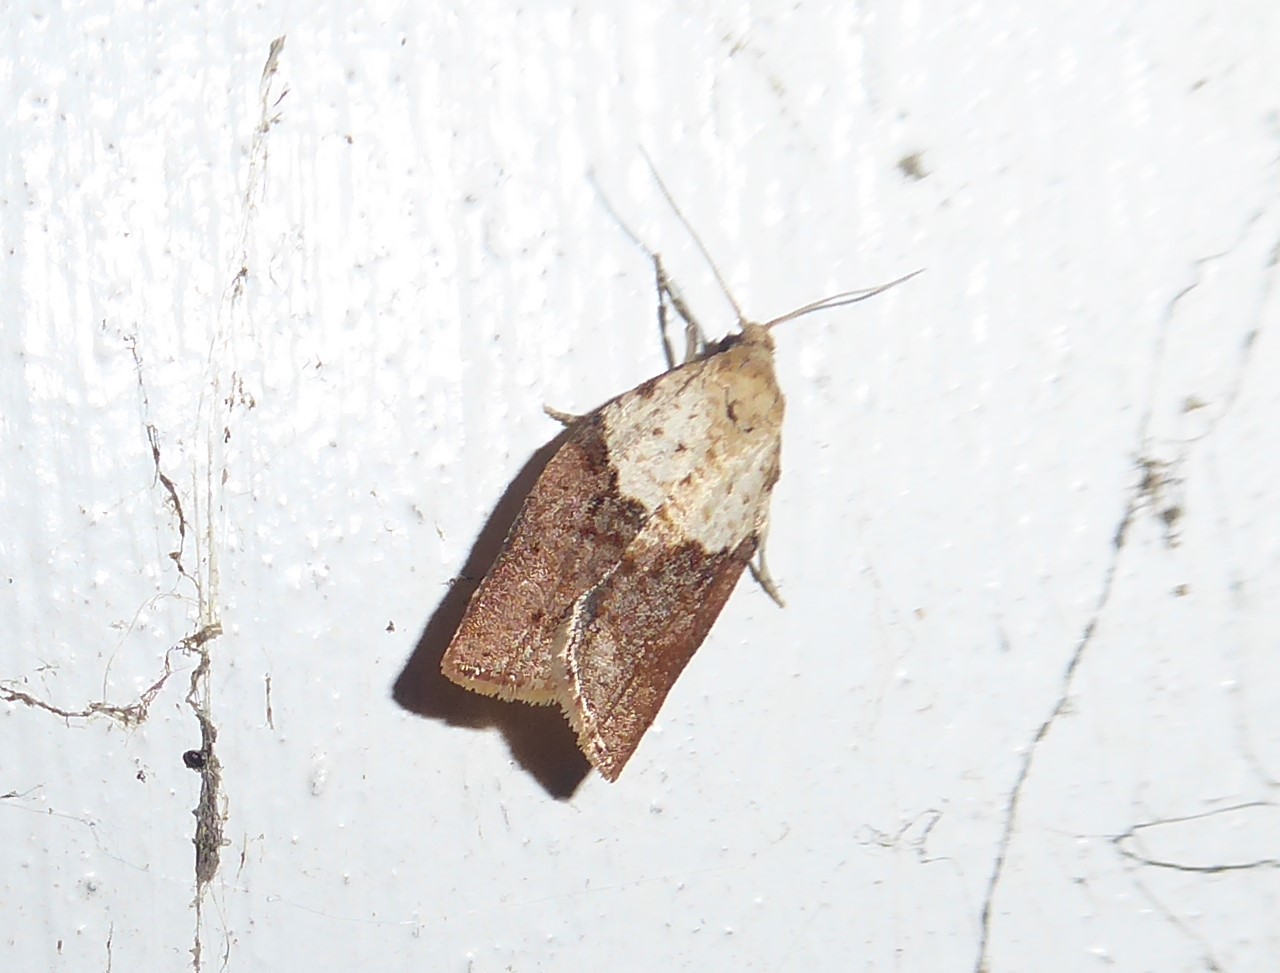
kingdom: Animalia
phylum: Arthropoda
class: Insecta
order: Lepidoptera
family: Tortricidae
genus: Epiphyas
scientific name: Epiphyas postvittana
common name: Light brown apple moth
